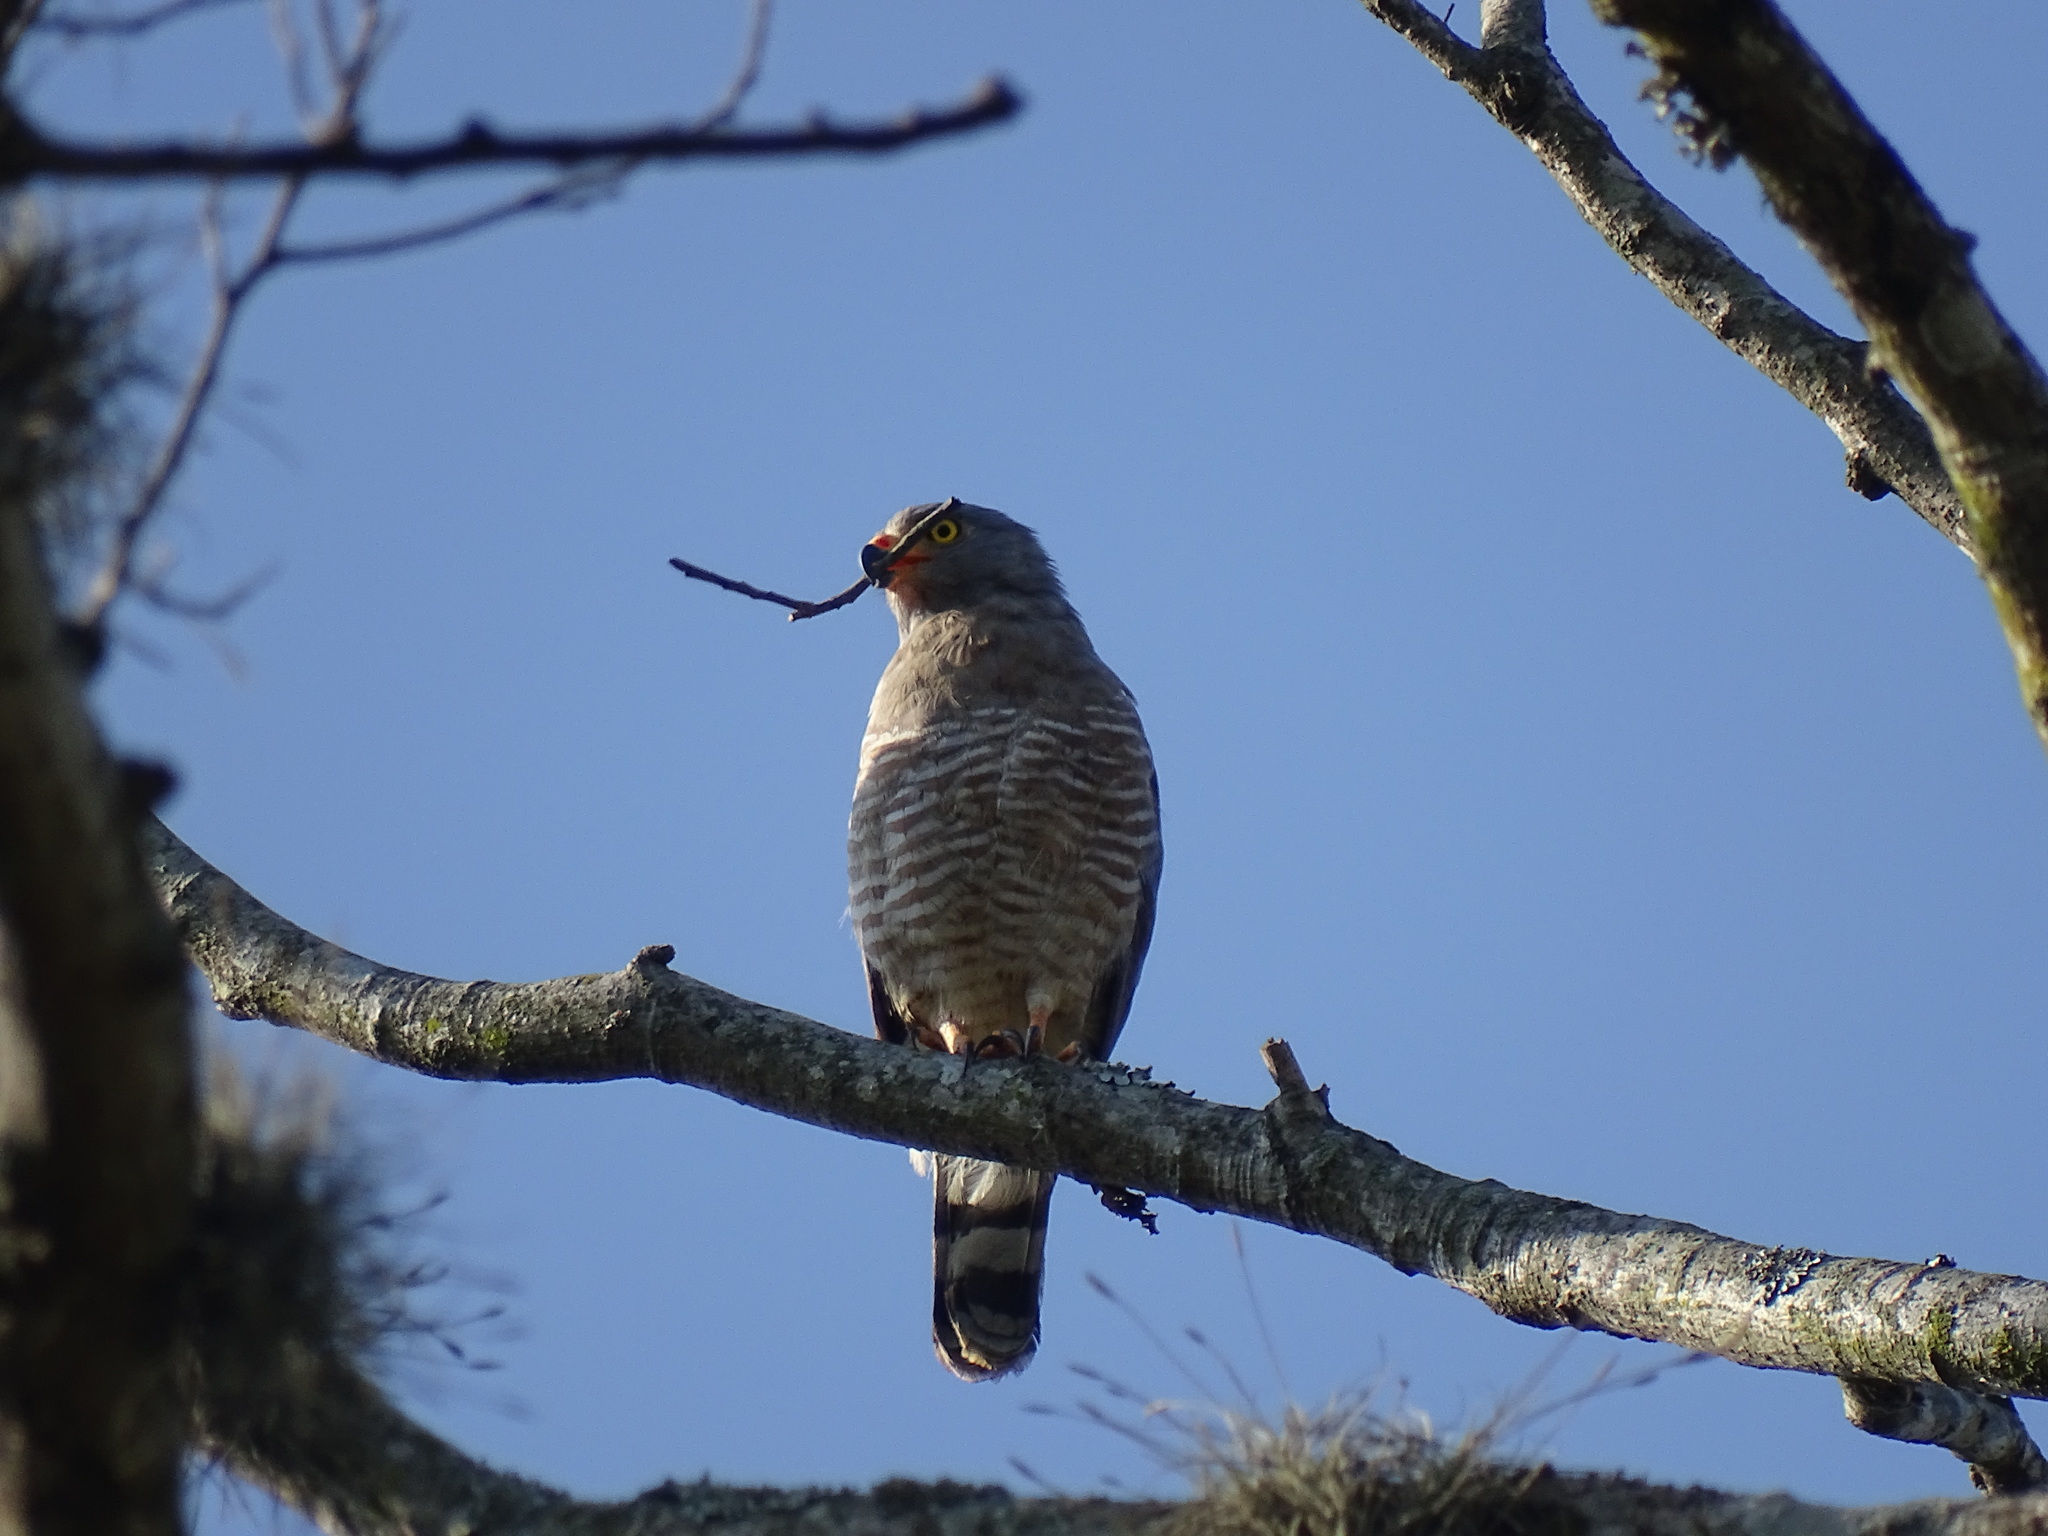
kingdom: Animalia
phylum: Chordata
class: Aves
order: Accipitriformes
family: Accipitridae
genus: Rupornis
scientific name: Rupornis magnirostris
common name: Roadside hawk
